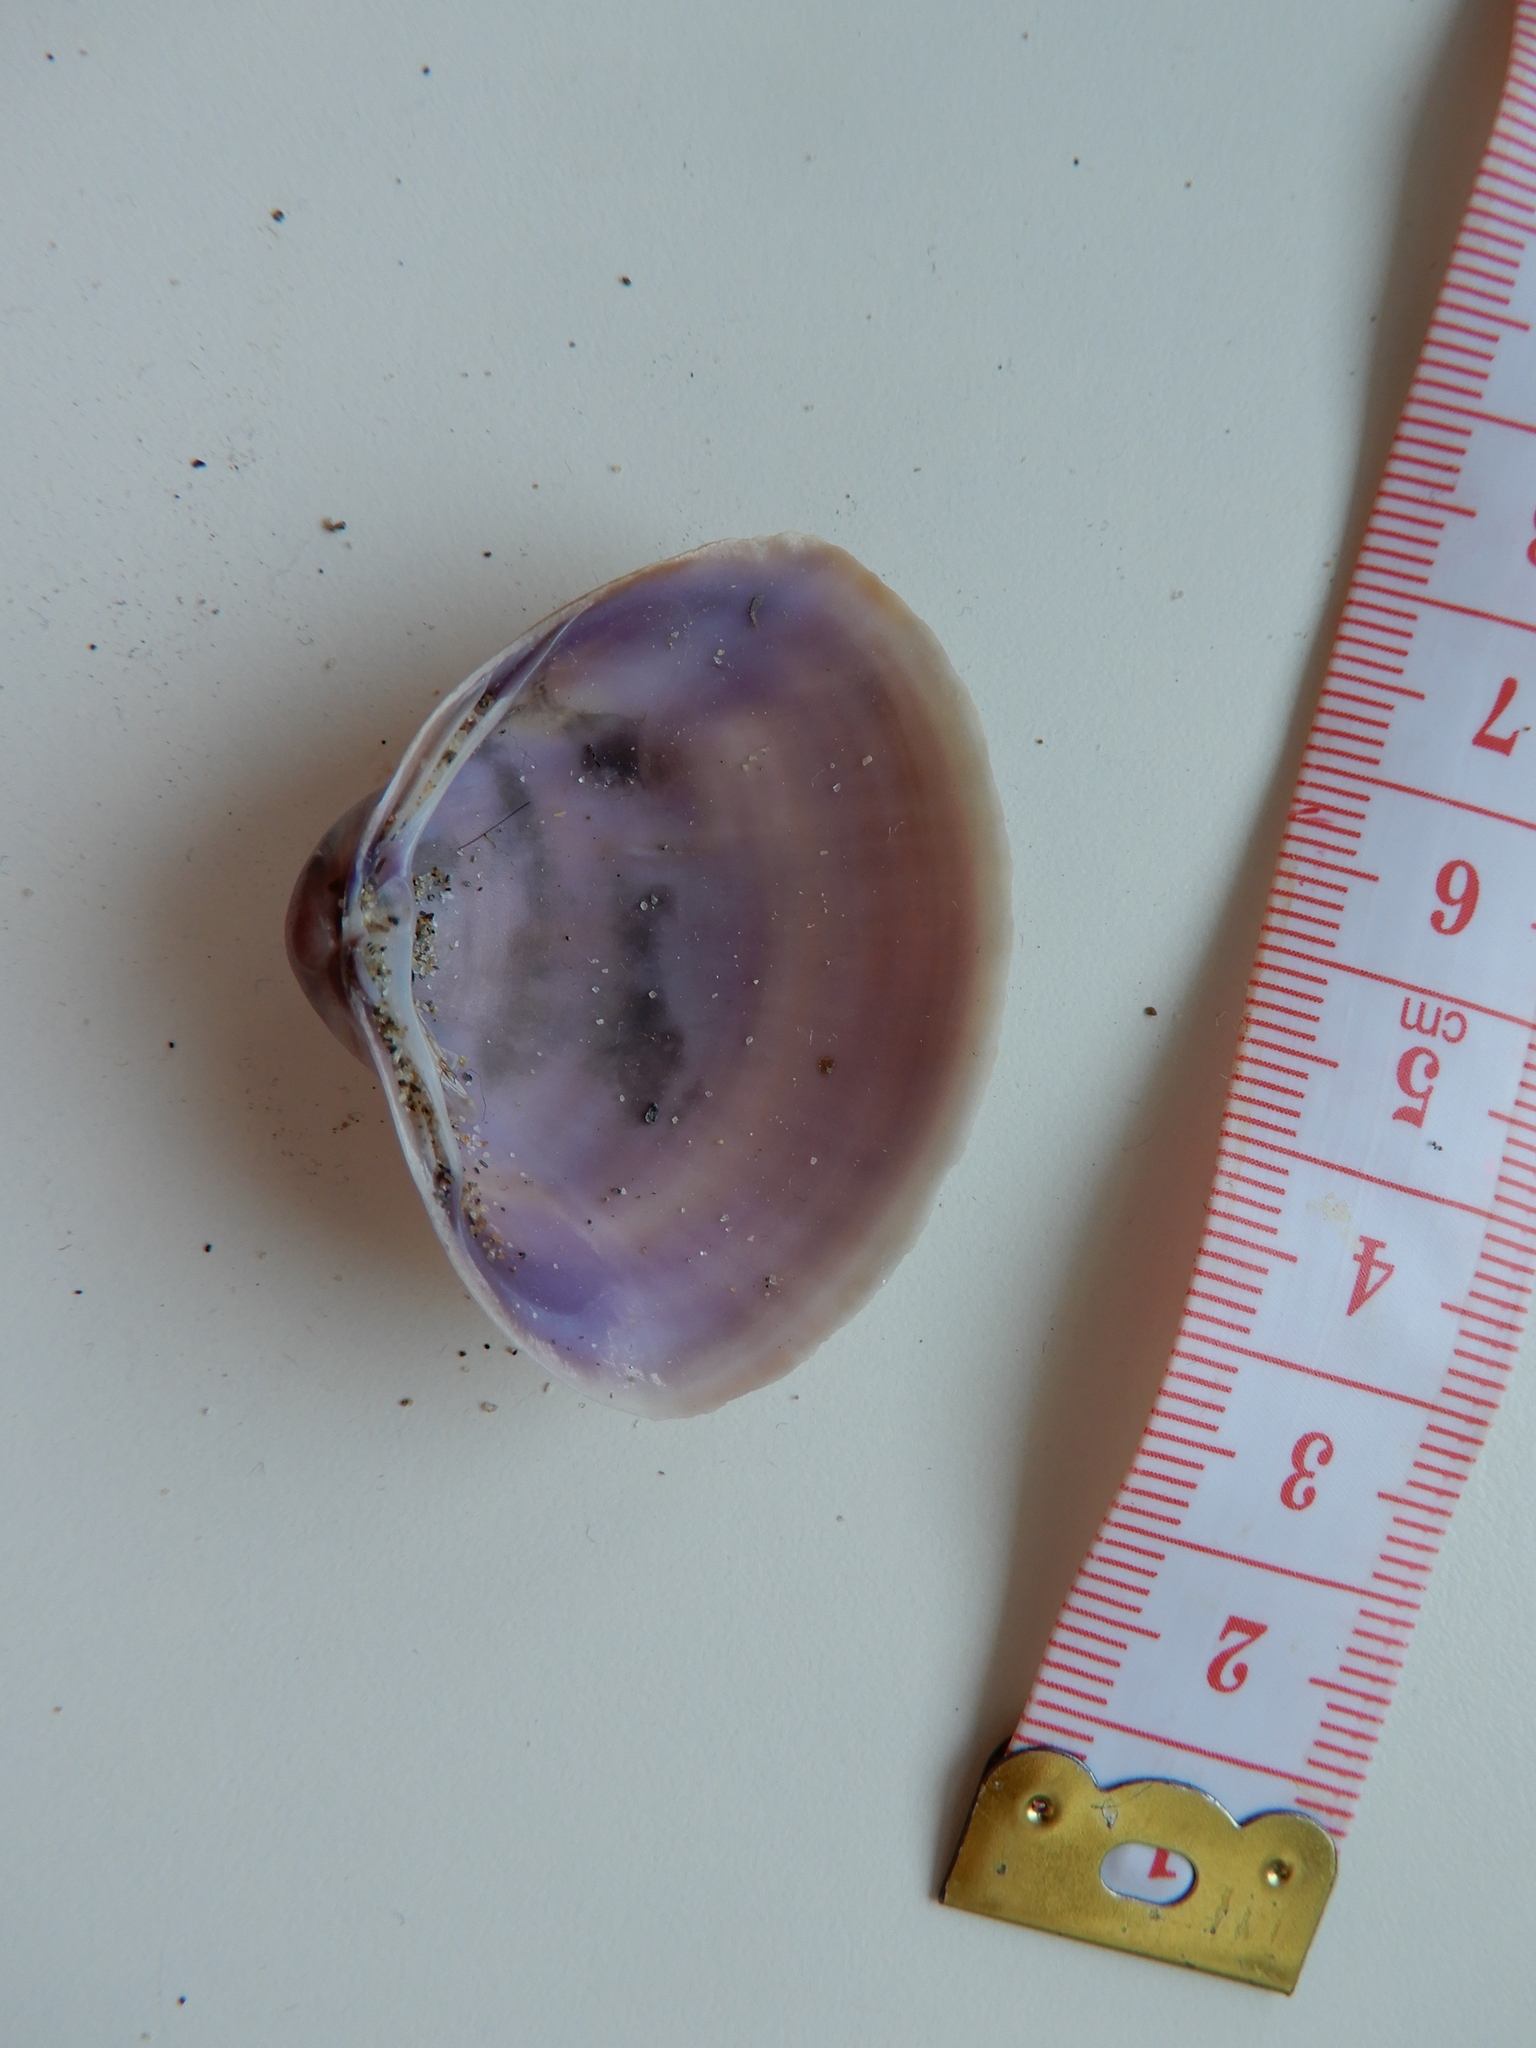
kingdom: Animalia
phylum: Mollusca
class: Bivalvia
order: Venerida
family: Mactridae
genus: Mactra
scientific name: Mactra stultorum
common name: Rayed trough shell
